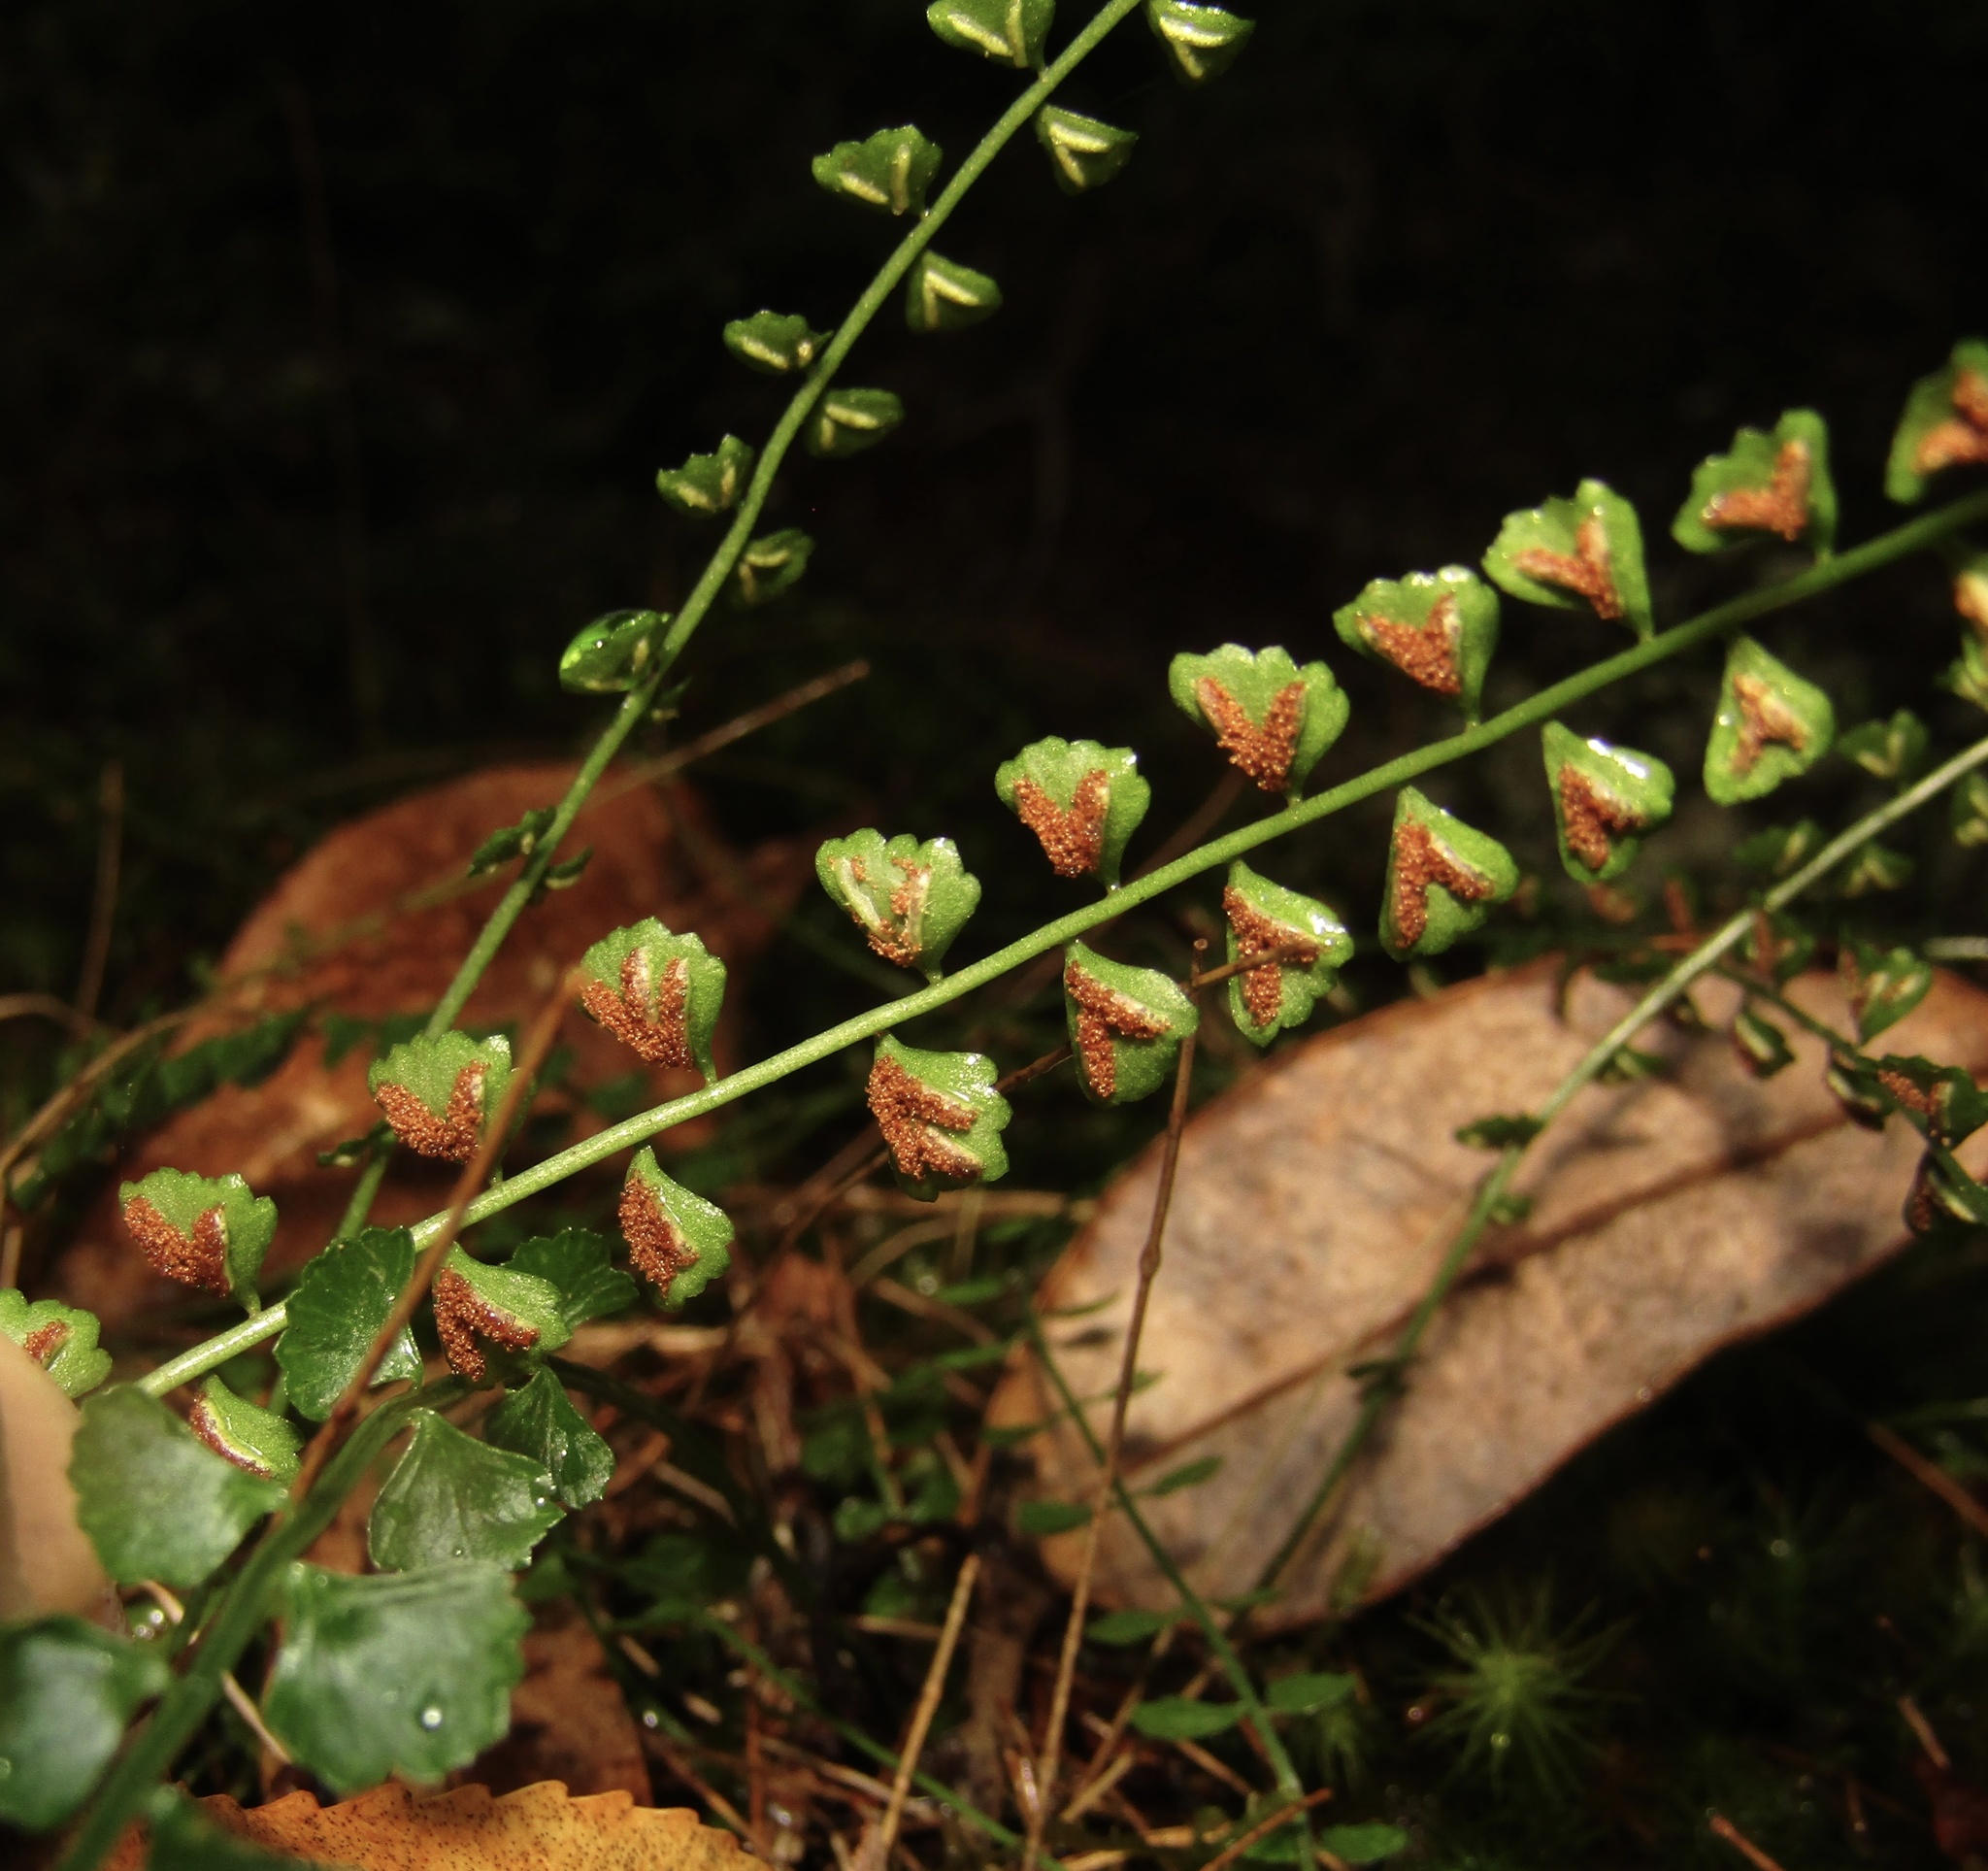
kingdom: Plantae
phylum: Tracheophyta
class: Polypodiopsida
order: Polypodiales
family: Aspleniaceae
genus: Asplenium
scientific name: Asplenium flabellifolium
